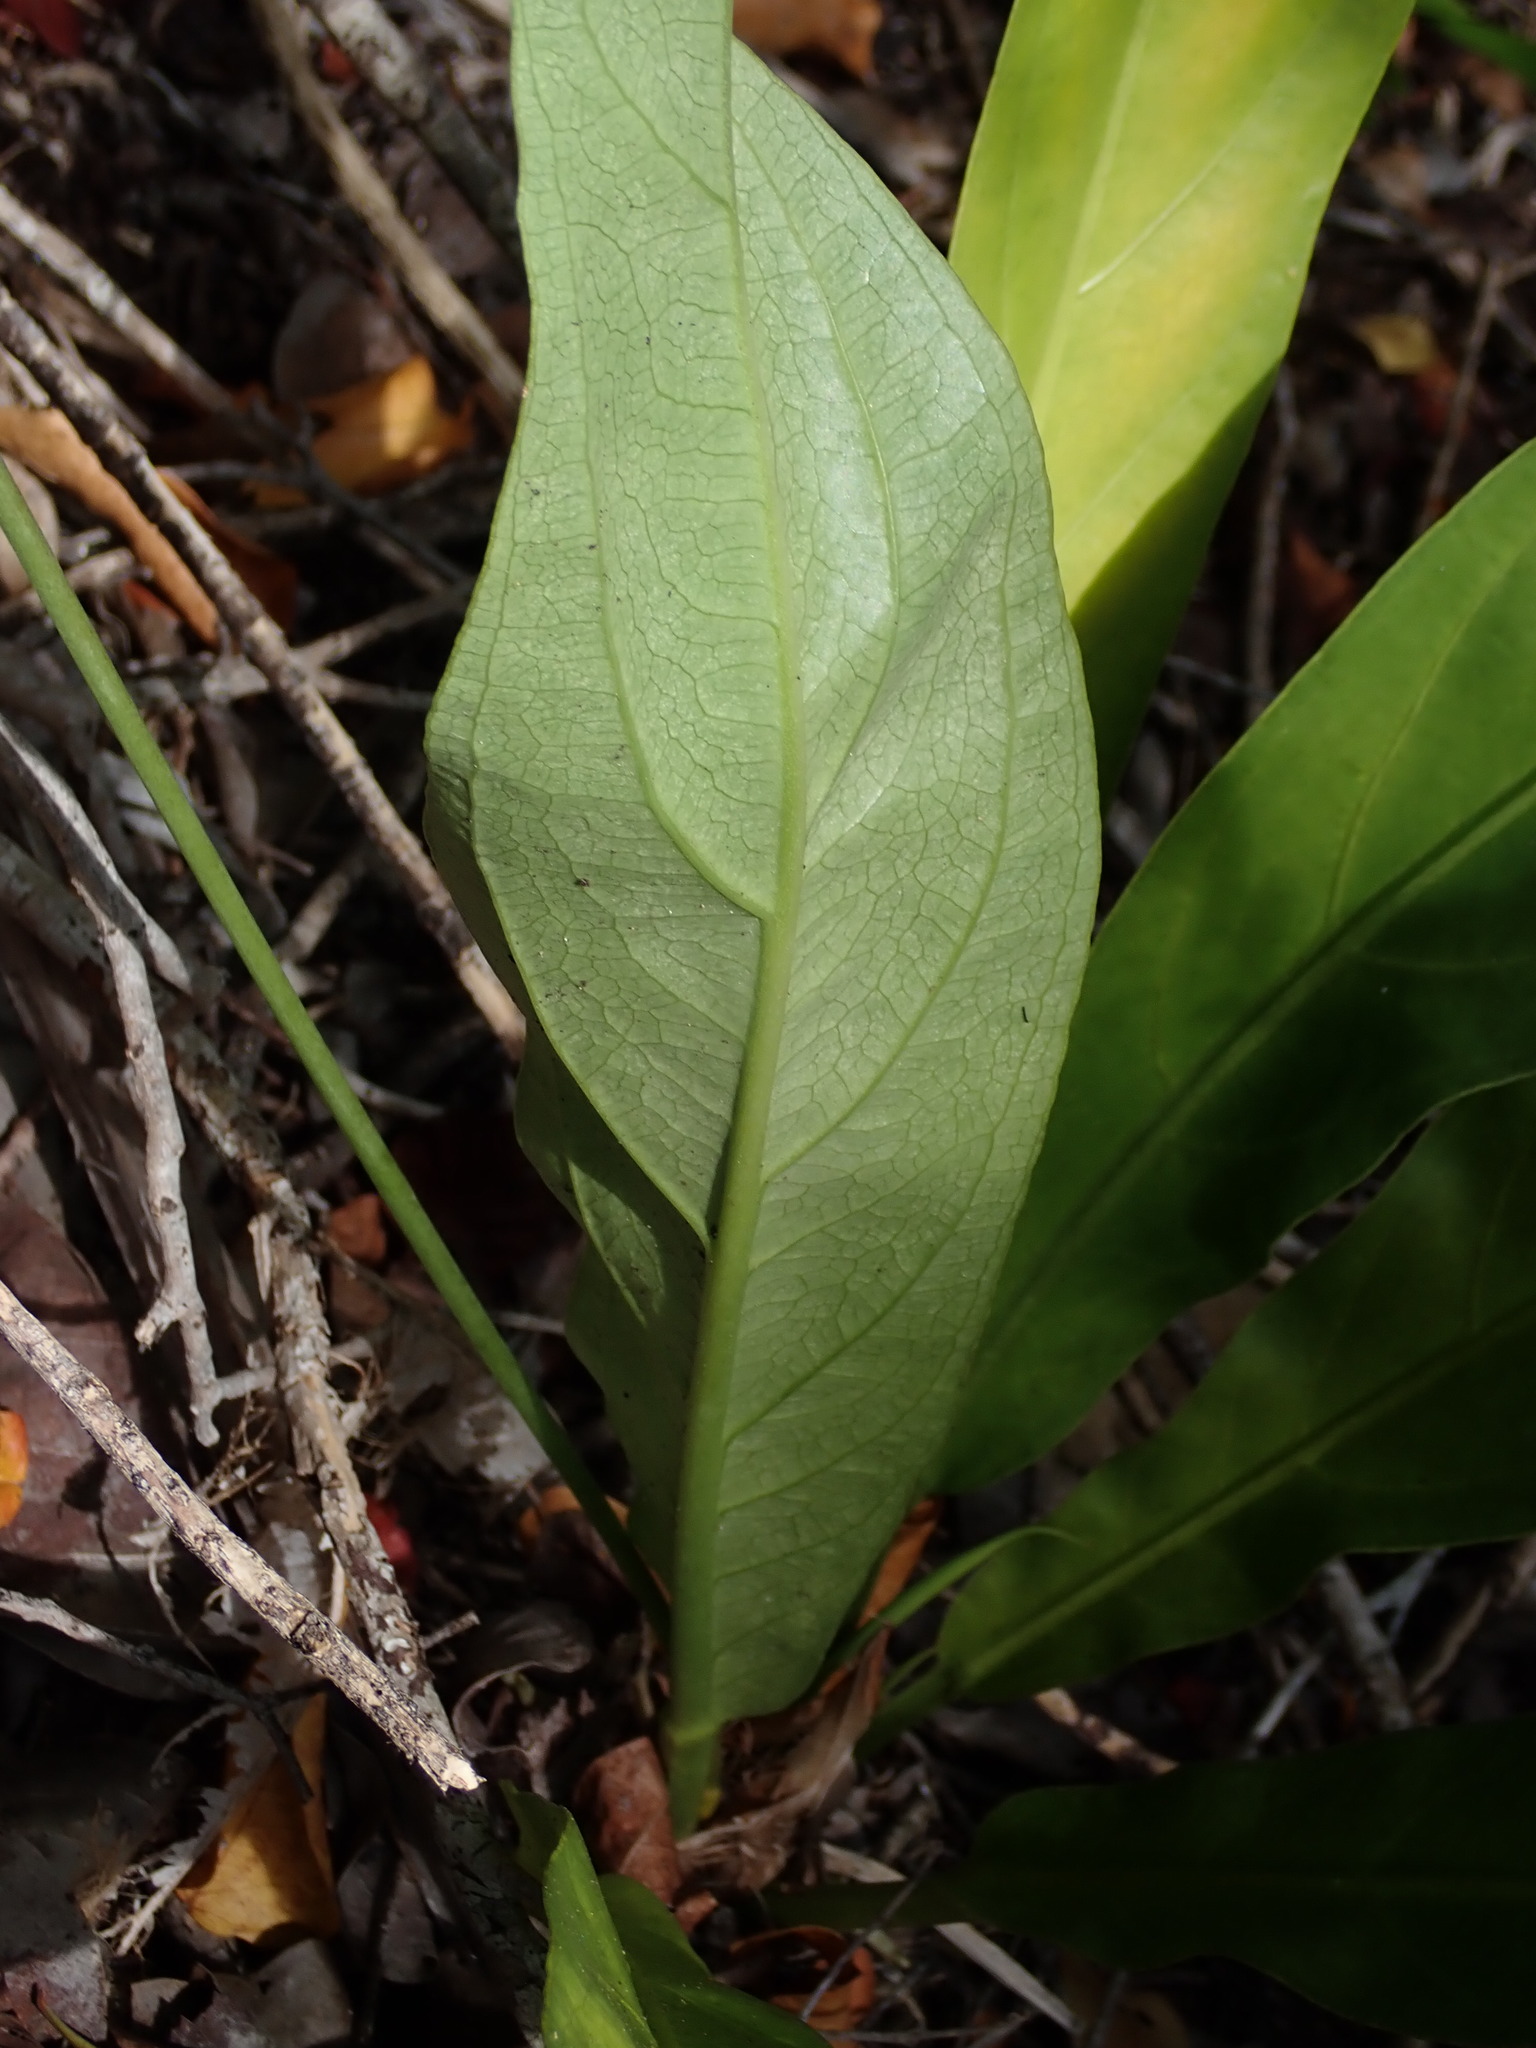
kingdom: Plantae
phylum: Tracheophyta
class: Liliopsida
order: Alismatales
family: Araceae
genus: Anthurium
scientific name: Anthurium crenatum
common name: Scalloped laceleaf
